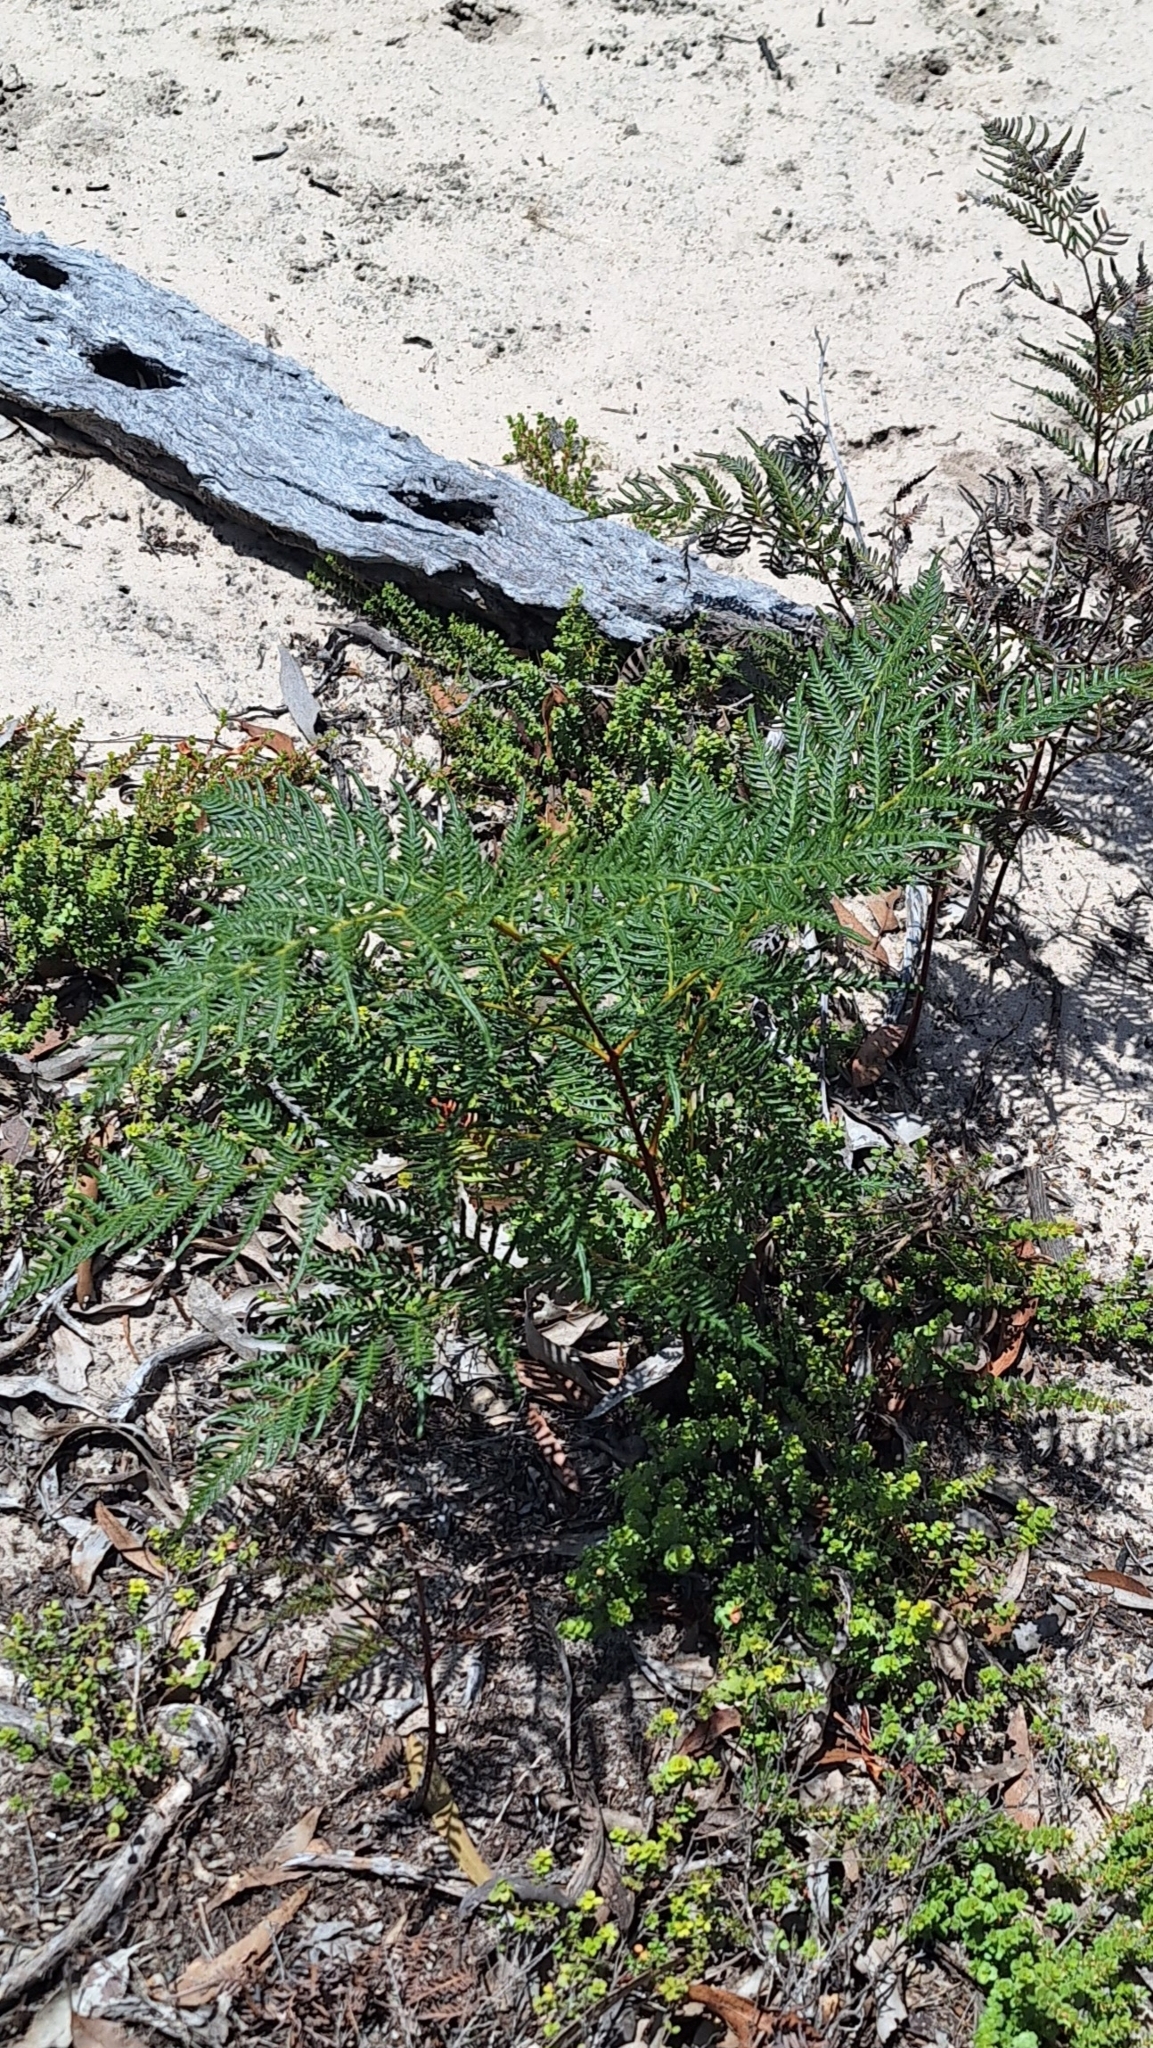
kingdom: Plantae
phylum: Tracheophyta
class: Polypodiopsida
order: Polypodiales
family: Dennstaedtiaceae
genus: Pteridium
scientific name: Pteridium esculentum
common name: Bracken fern
